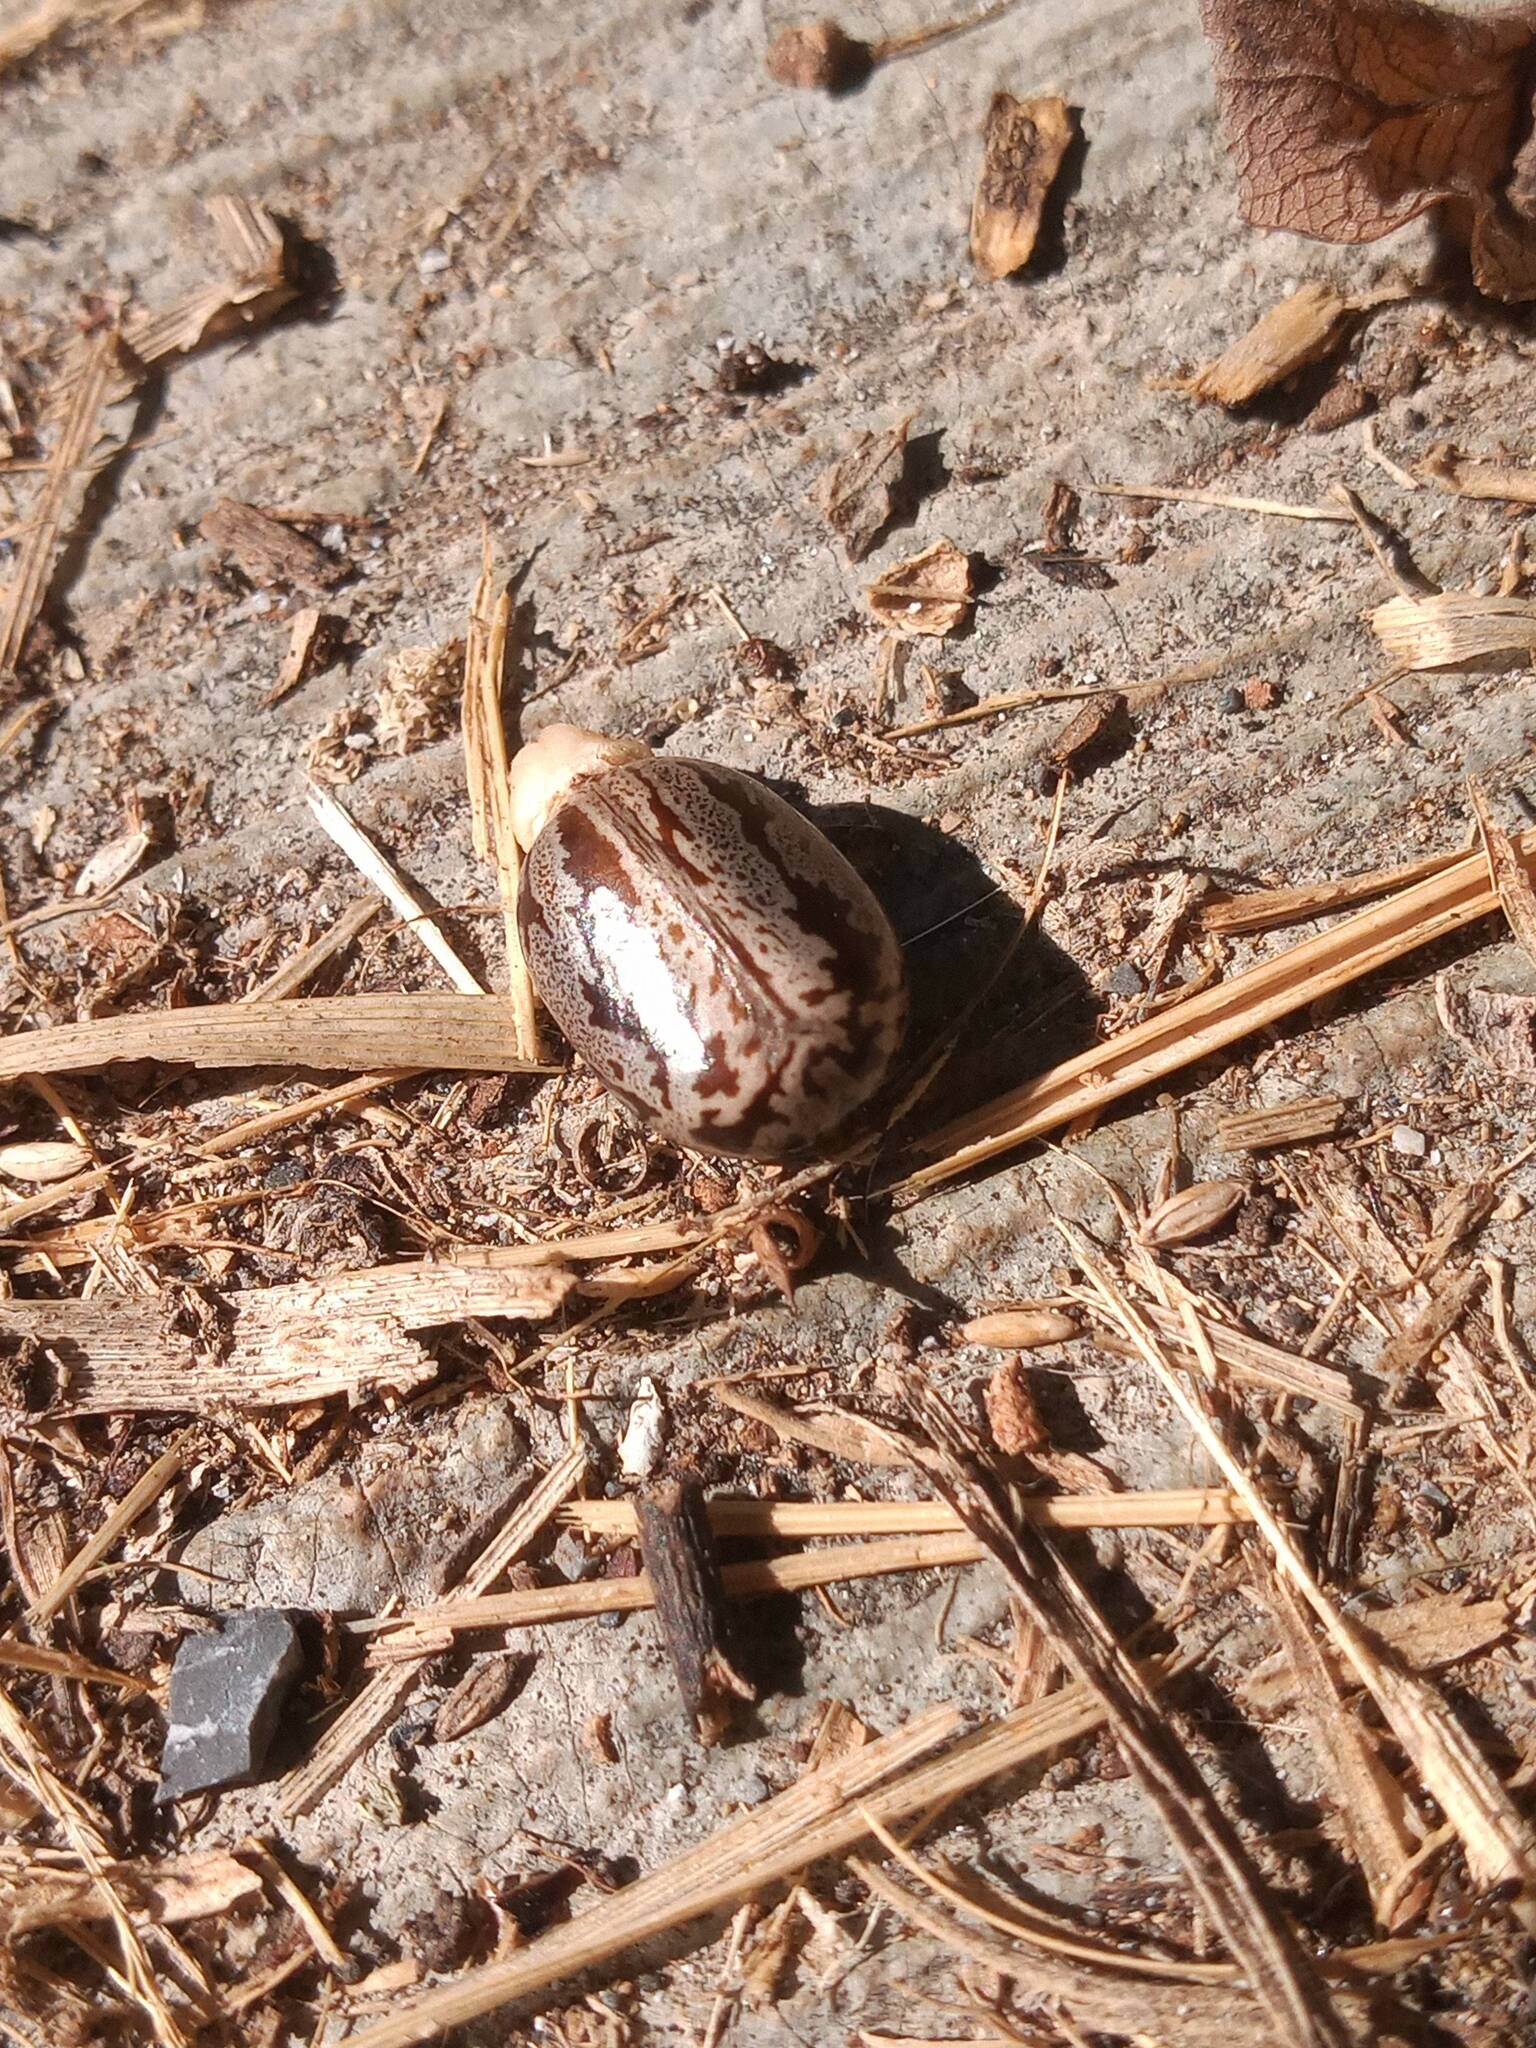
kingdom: Plantae
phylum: Tracheophyta
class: Magnoliopsida
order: Malpighiales
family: Euphorbiaceae
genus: Ricinus
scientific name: Ricinus communis
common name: Castor-oil-plant
